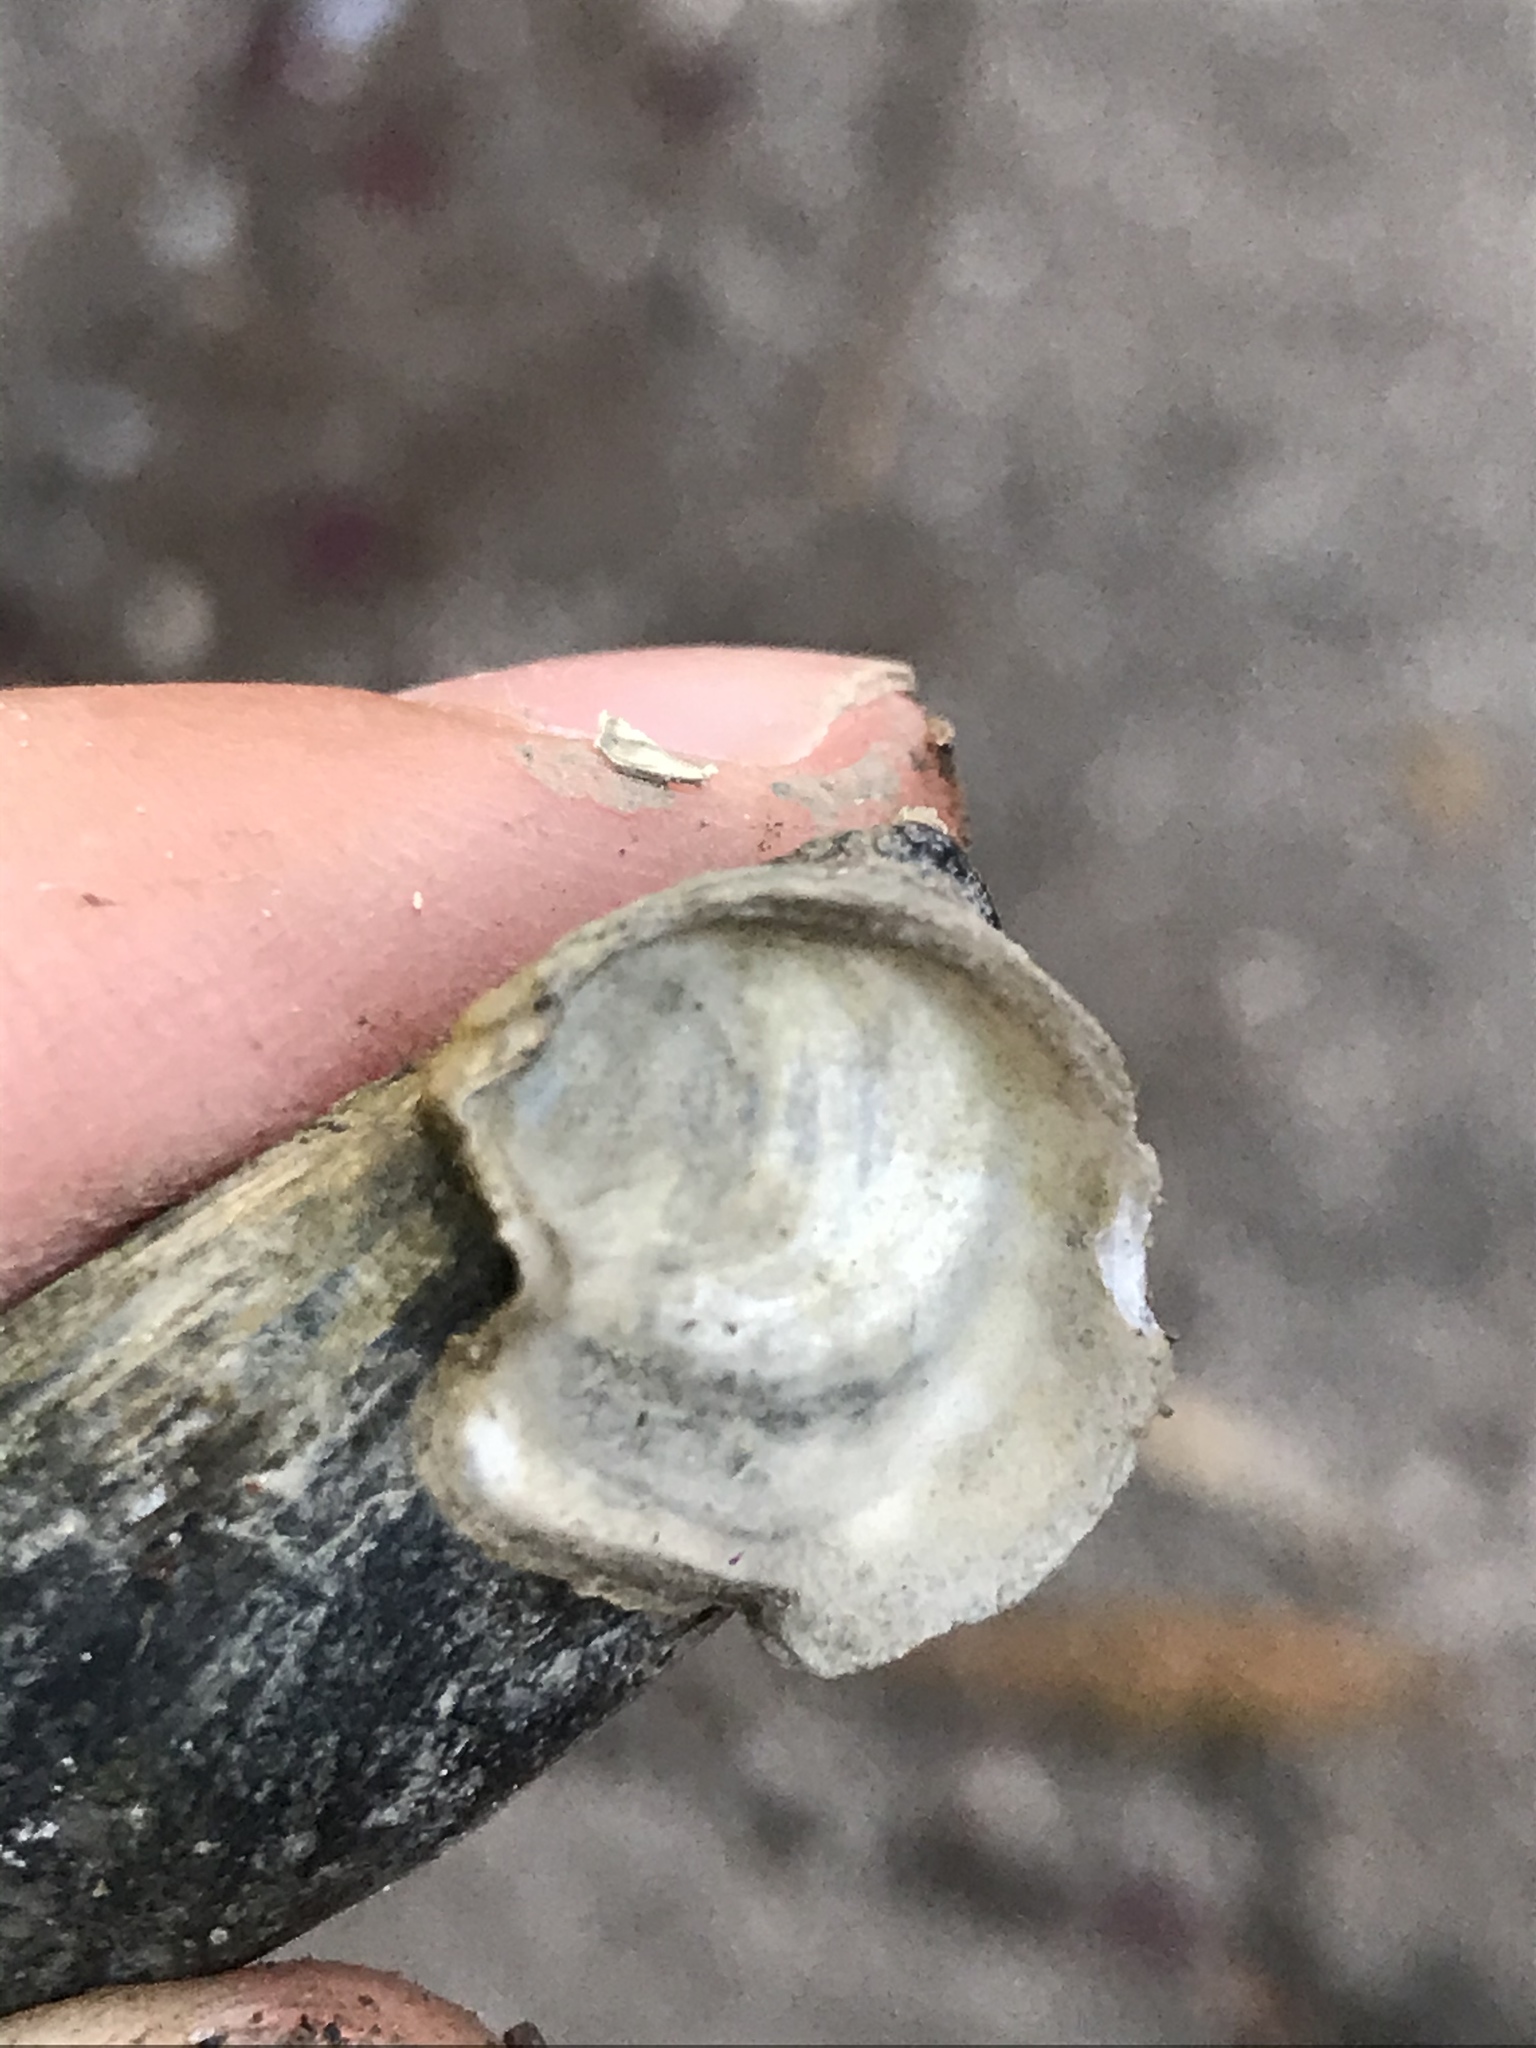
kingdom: Animalia
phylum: Mollusca
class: Bivalvia
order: Ostreida
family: Ostreidae
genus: Ostrea
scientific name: Ostrea lurida
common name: Olympia flat oyster
